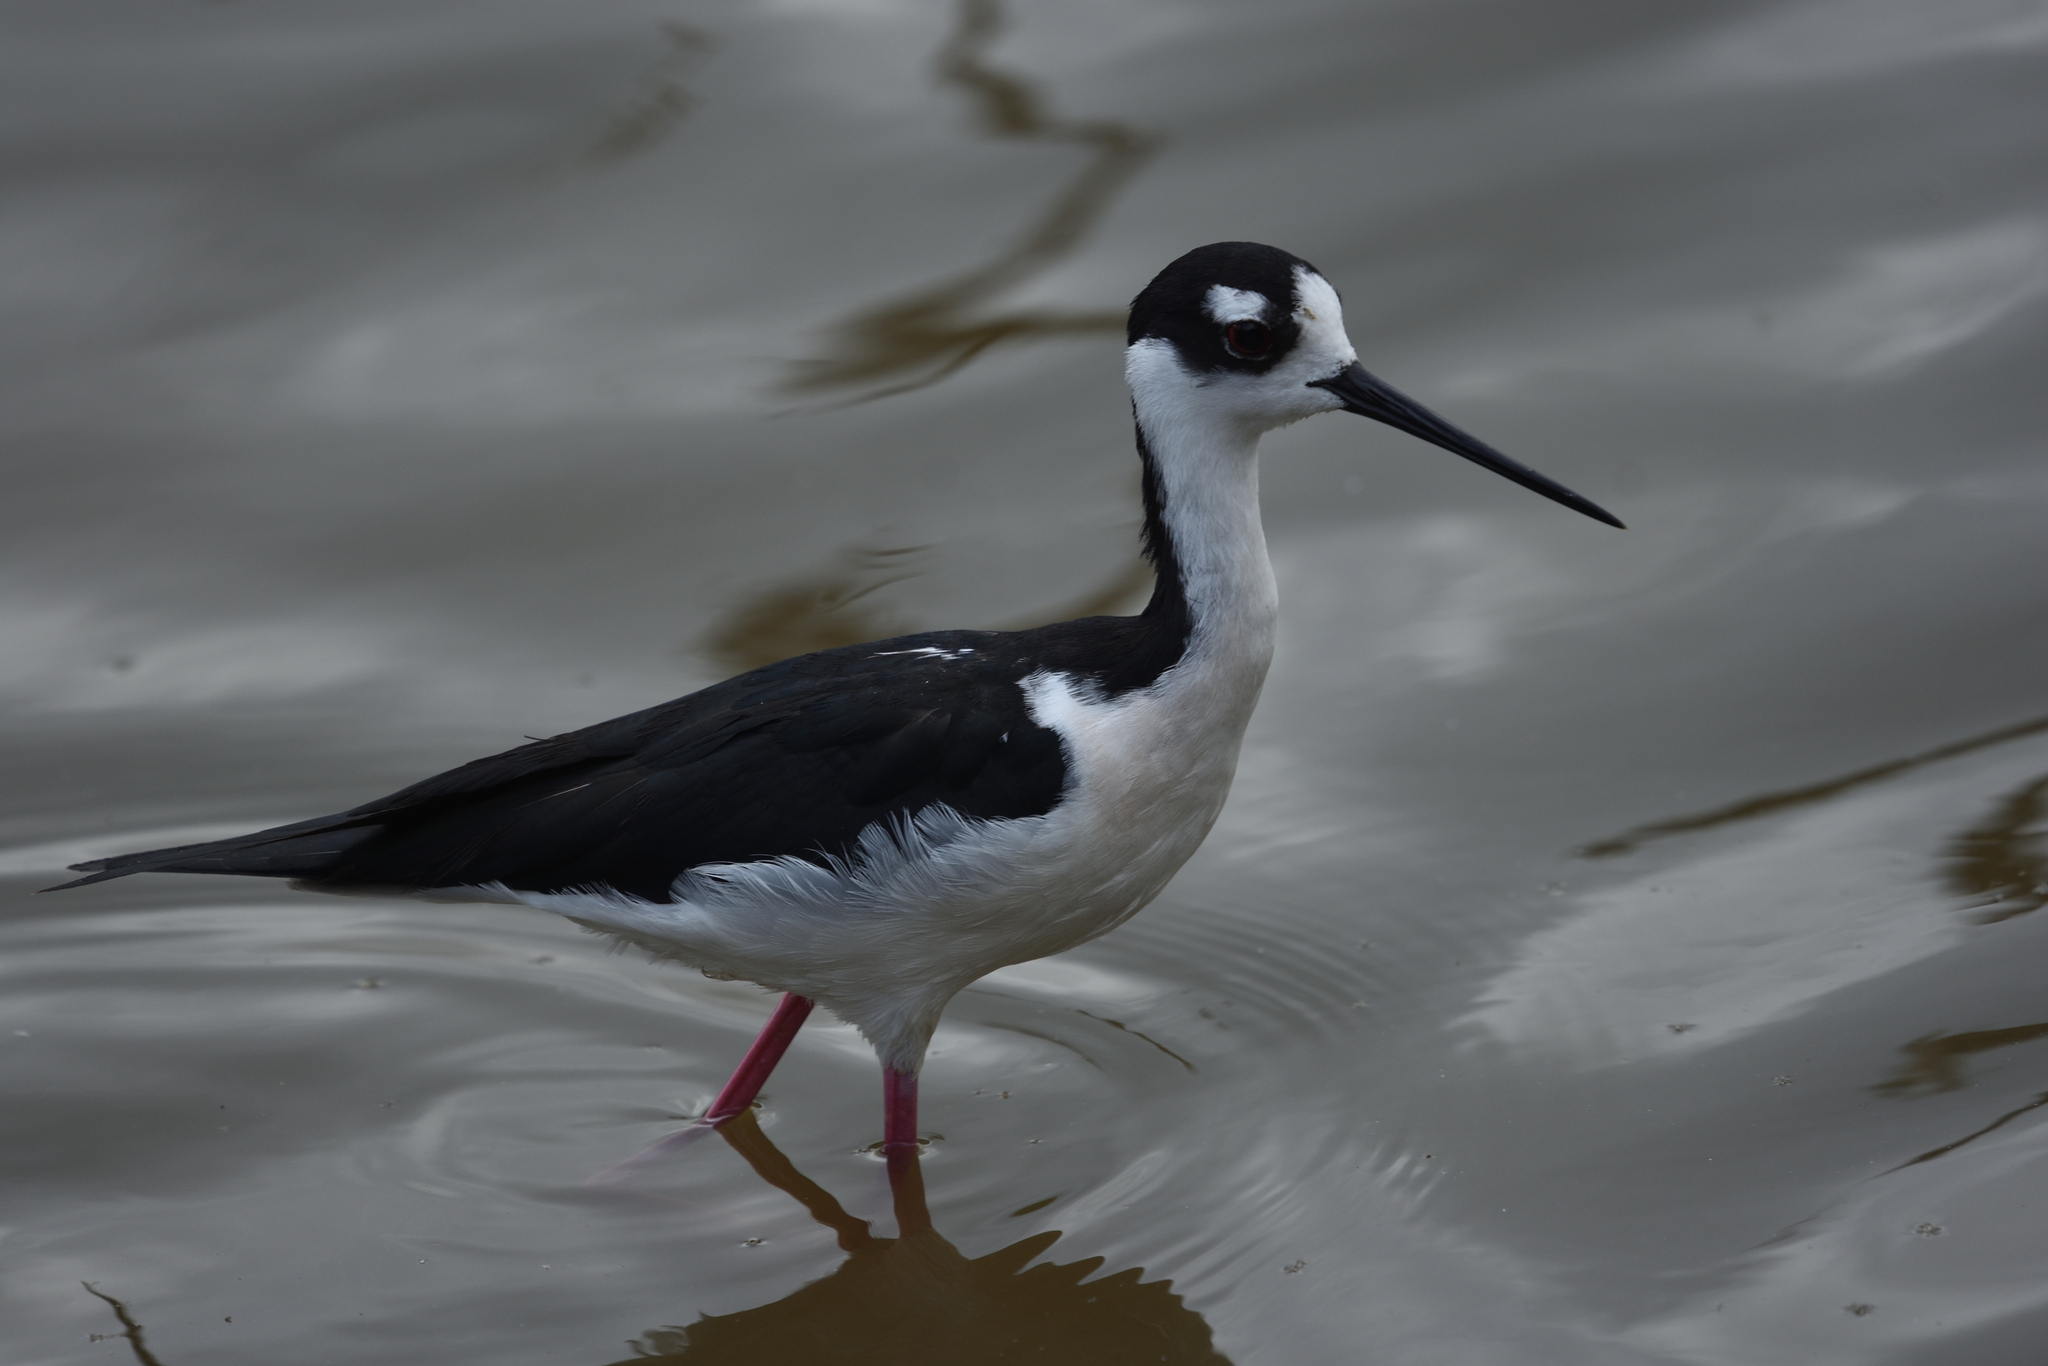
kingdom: Animalia
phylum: Chordata
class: Aves
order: Charadriiformes
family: Recurvirostridae
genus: Himantopus
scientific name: Himantopus mexicanus
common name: Black-necked stilt
